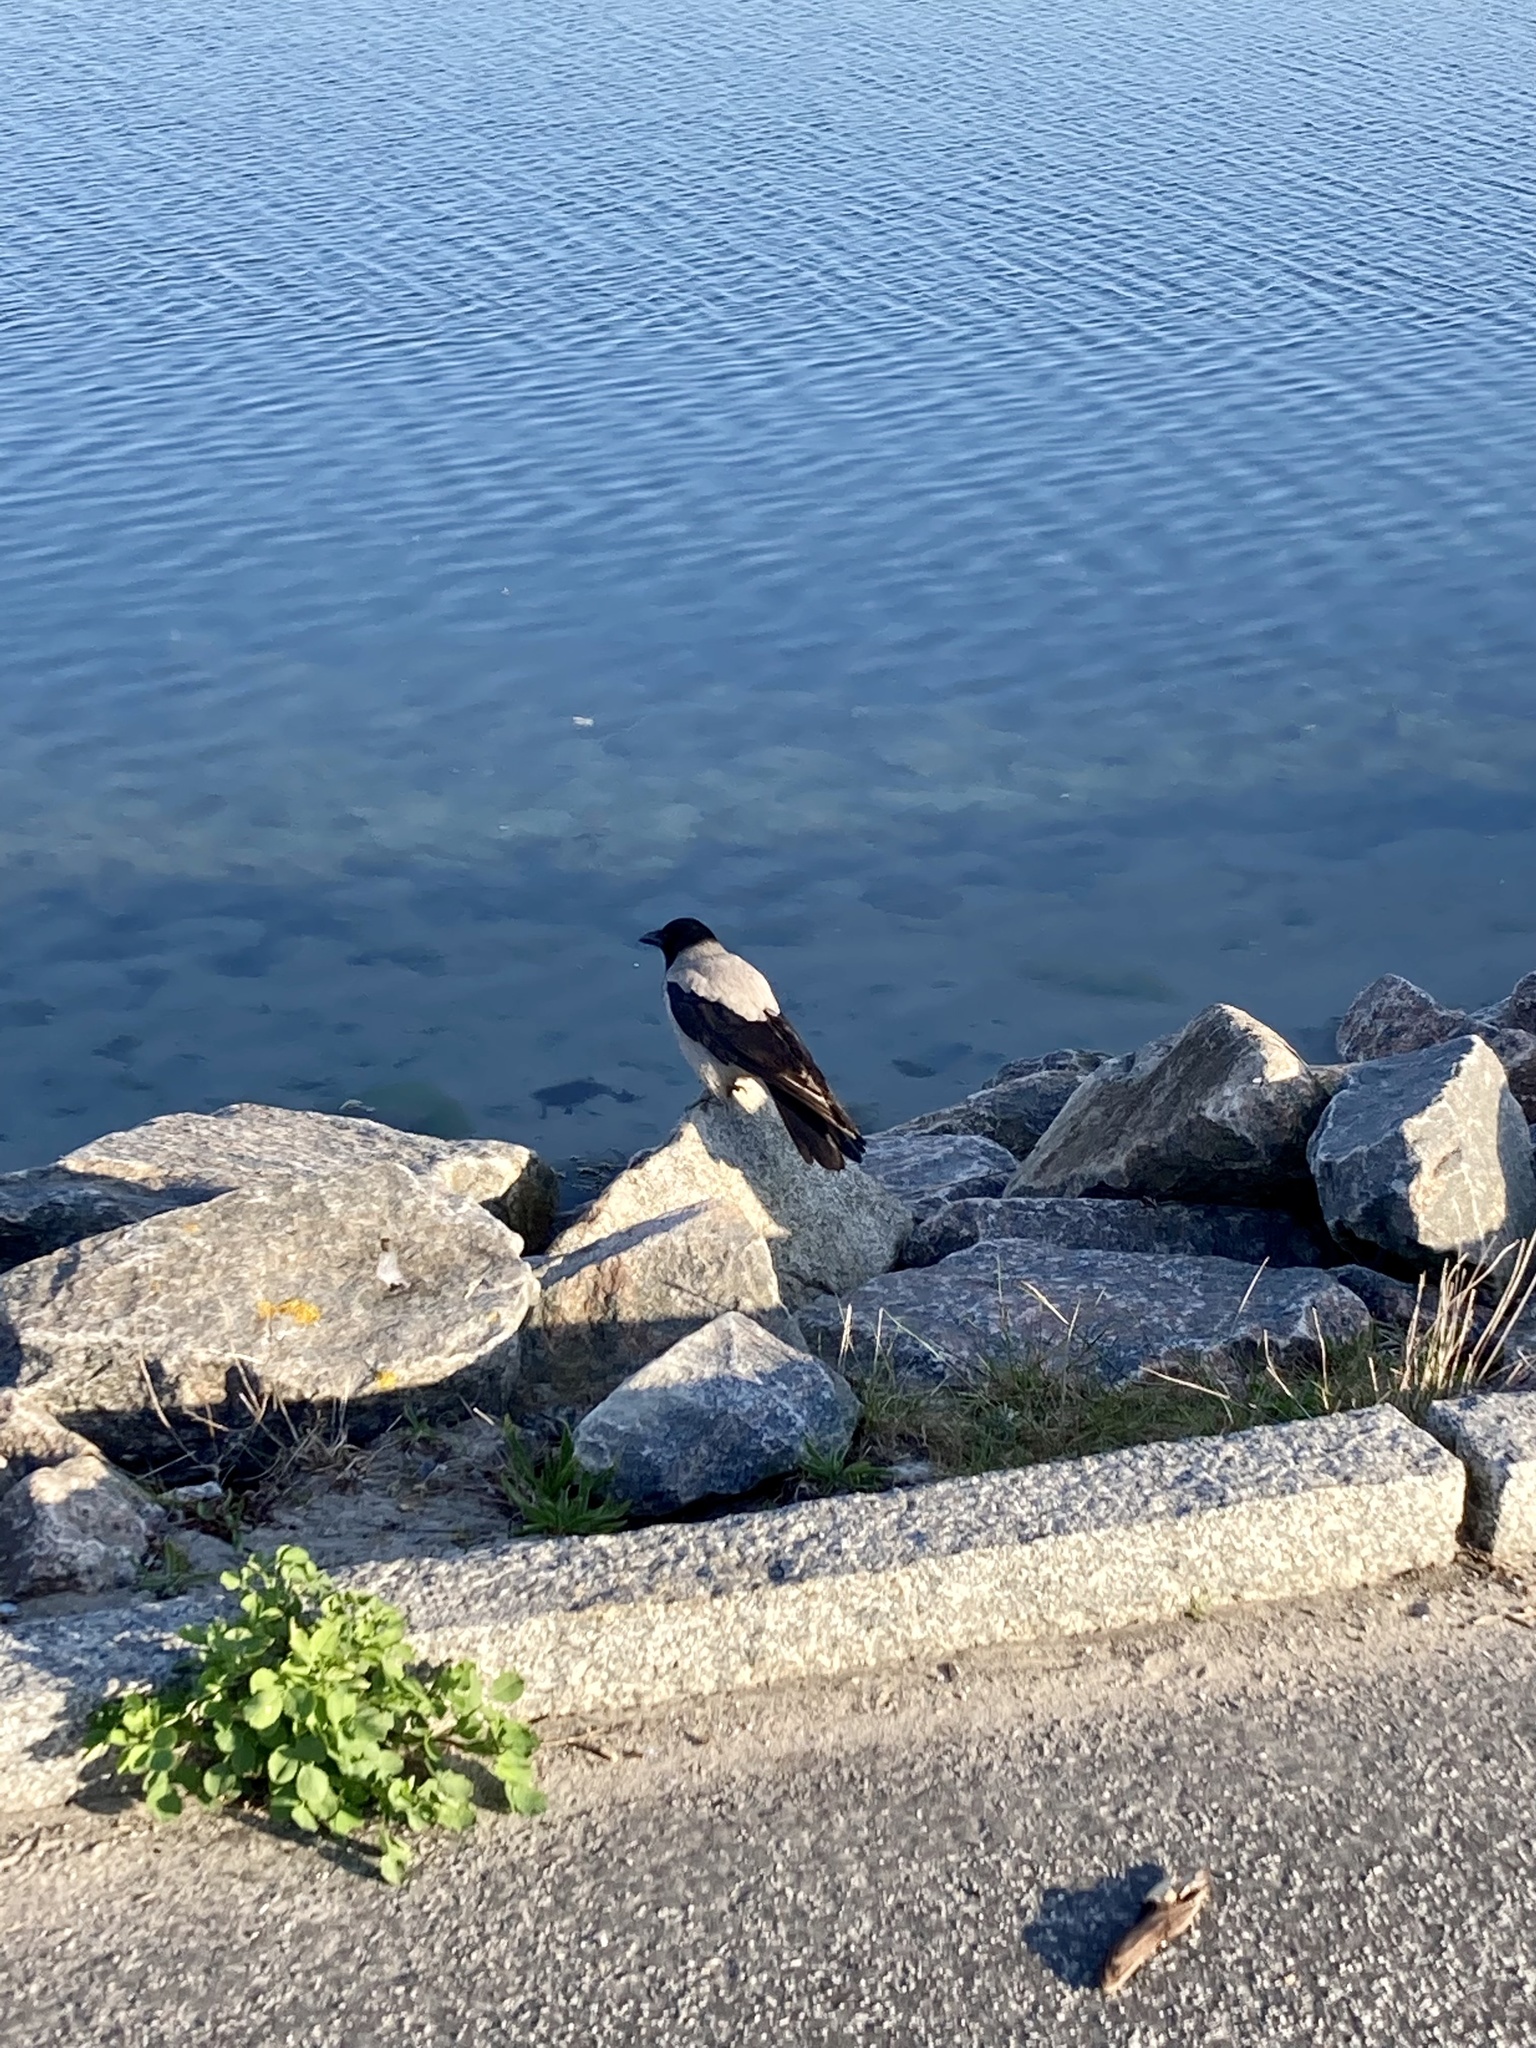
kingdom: Animalia
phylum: Chordata
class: Aves
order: Passeriformes
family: Corvidae
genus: Corvus
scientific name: Corvus cornix
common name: Hooded crow
